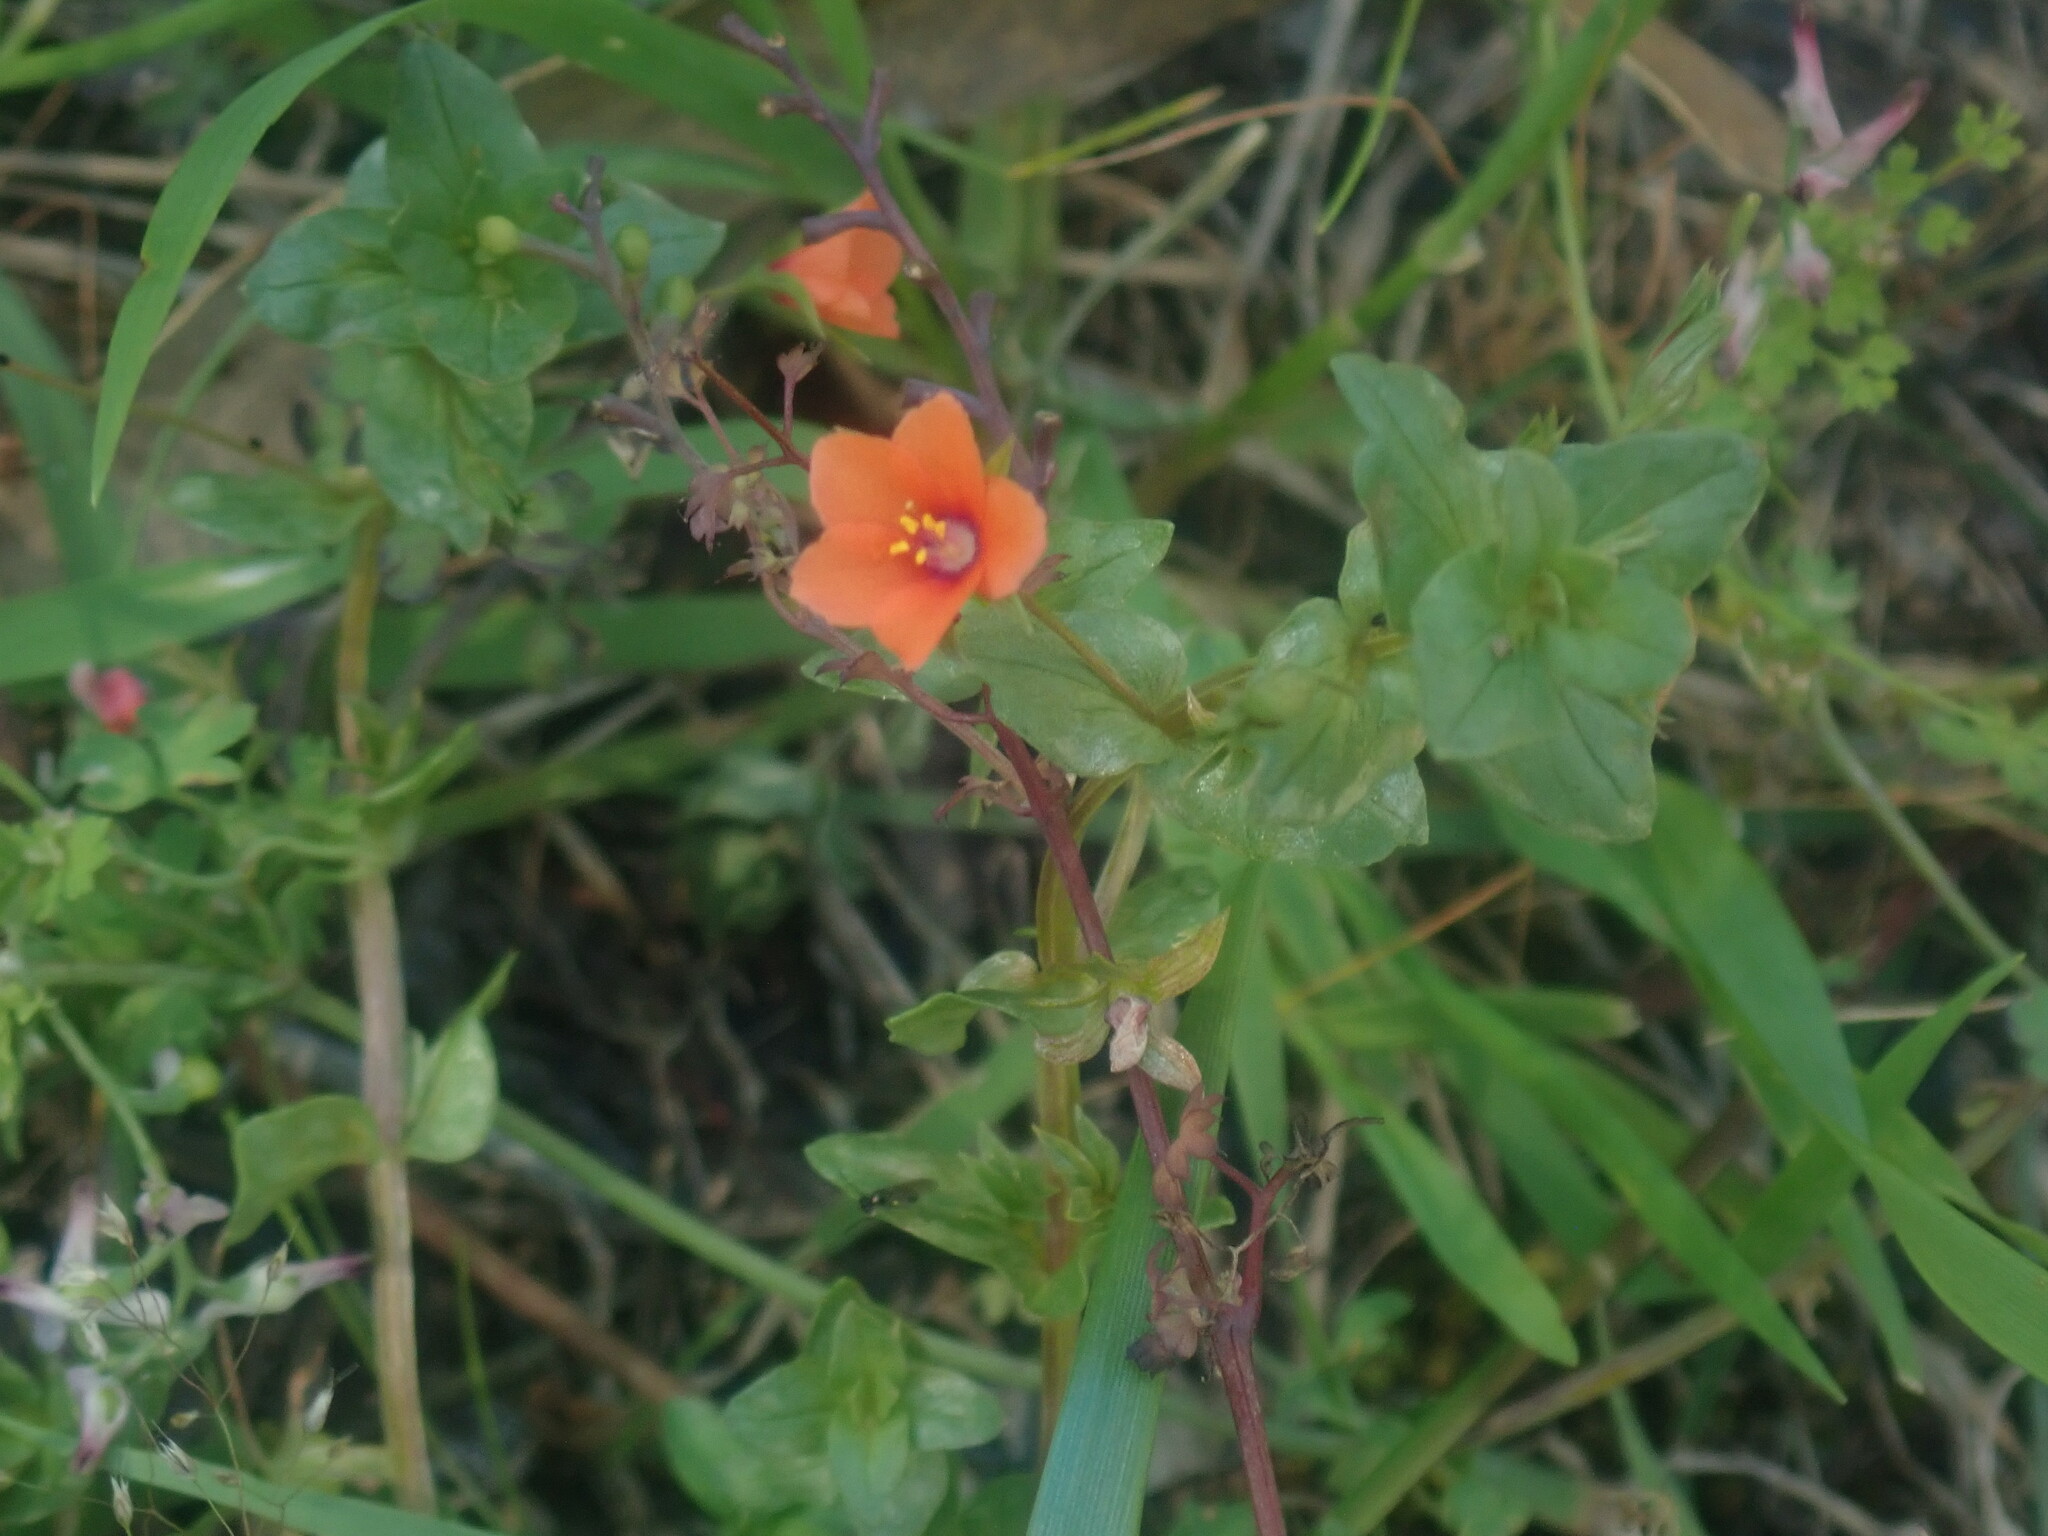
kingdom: Plantae
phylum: Tracheophyta
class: Magnoliopsida
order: Ericales
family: Primulaceae
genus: Lysimachia
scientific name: Lysimachia arvensis
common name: Scarlet pimpernel
